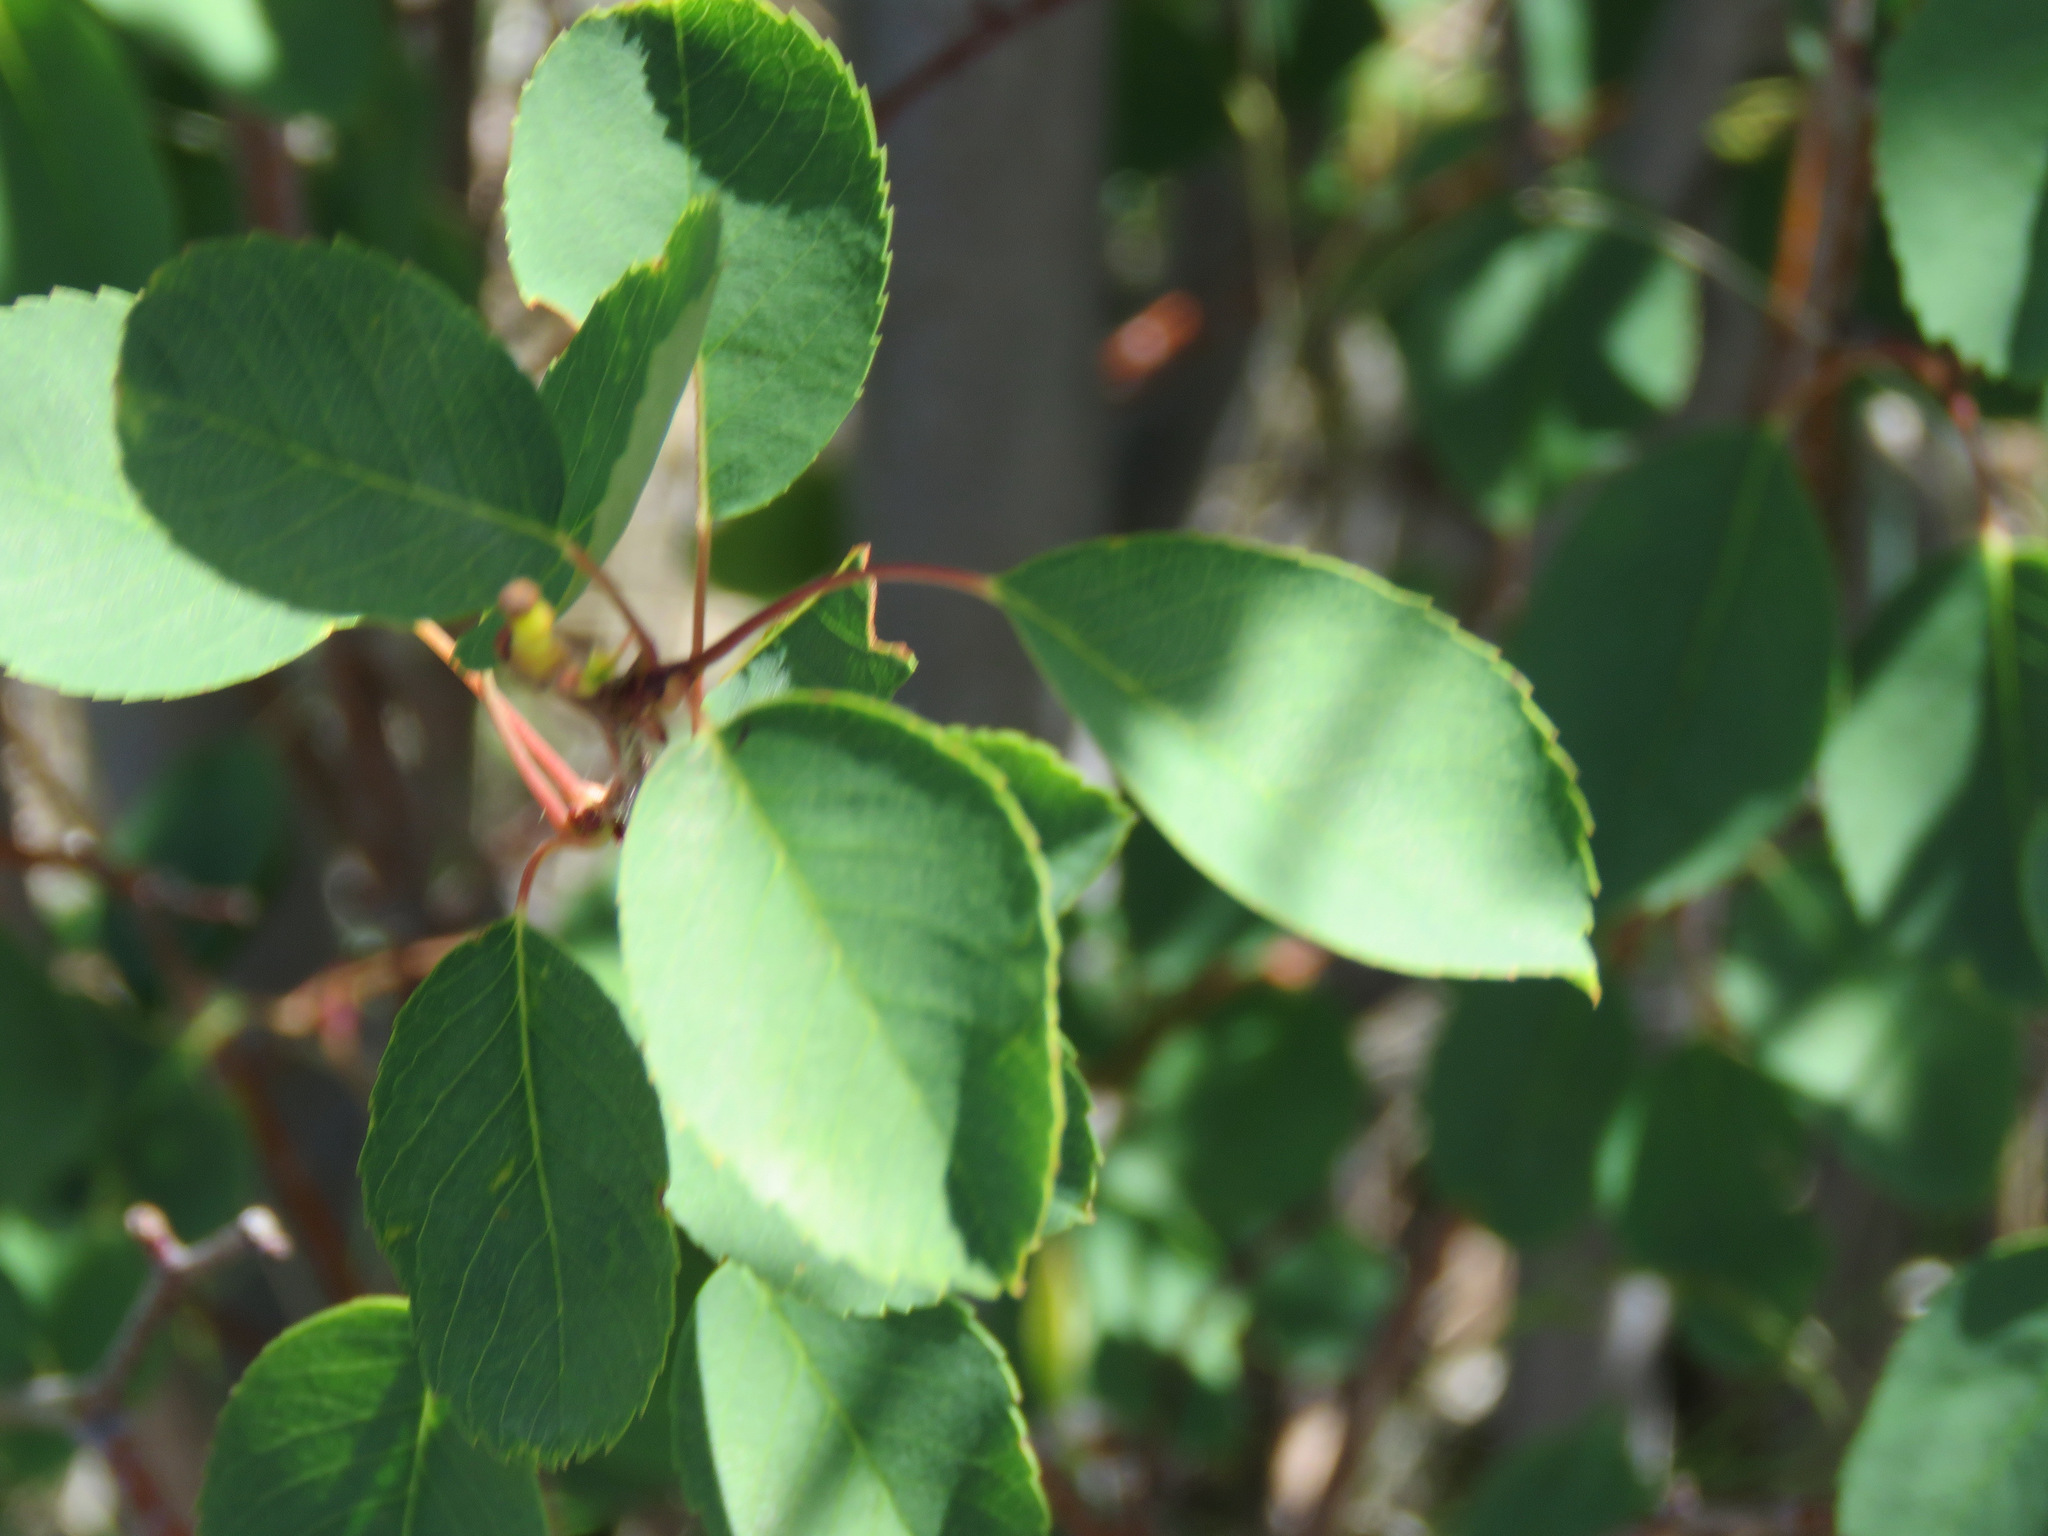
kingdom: Plantae
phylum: Tracheophyta
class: Magnoliopsida
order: Rosales
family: Rosaceae
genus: Amelanchier
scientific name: Amelanchier alnifolia
